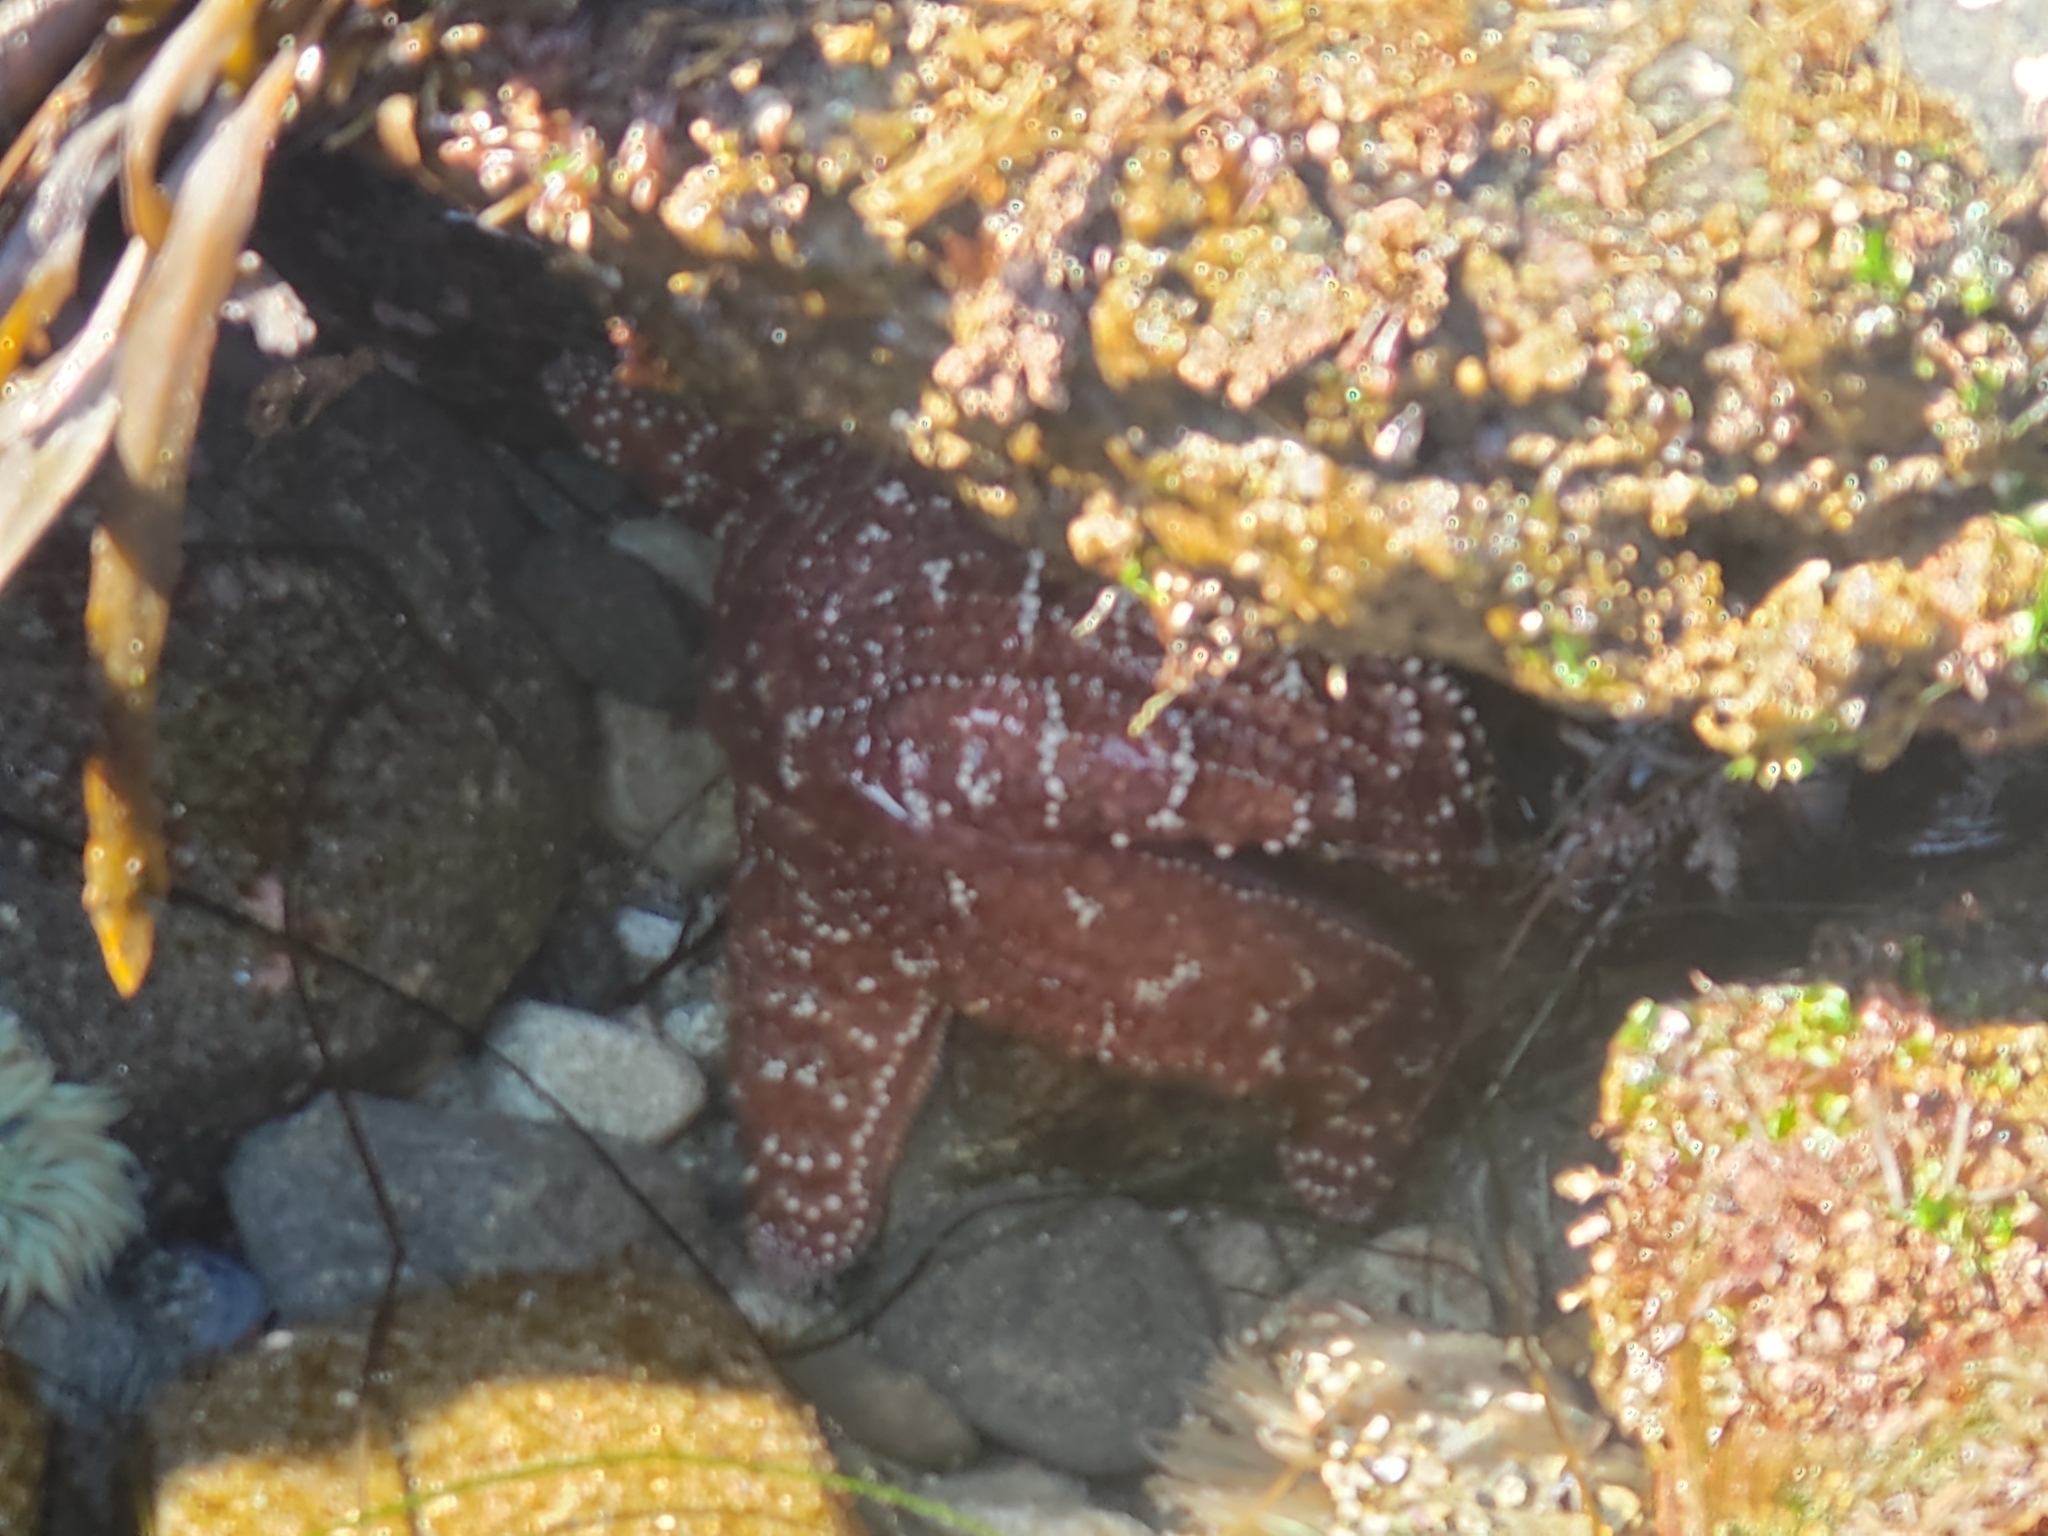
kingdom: Animalia
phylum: Echinodermata
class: Asteroidea
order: Forcipulatida
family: Asteriidae
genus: Pisaster
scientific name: Pisaster ochraceus
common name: Ochre stars
